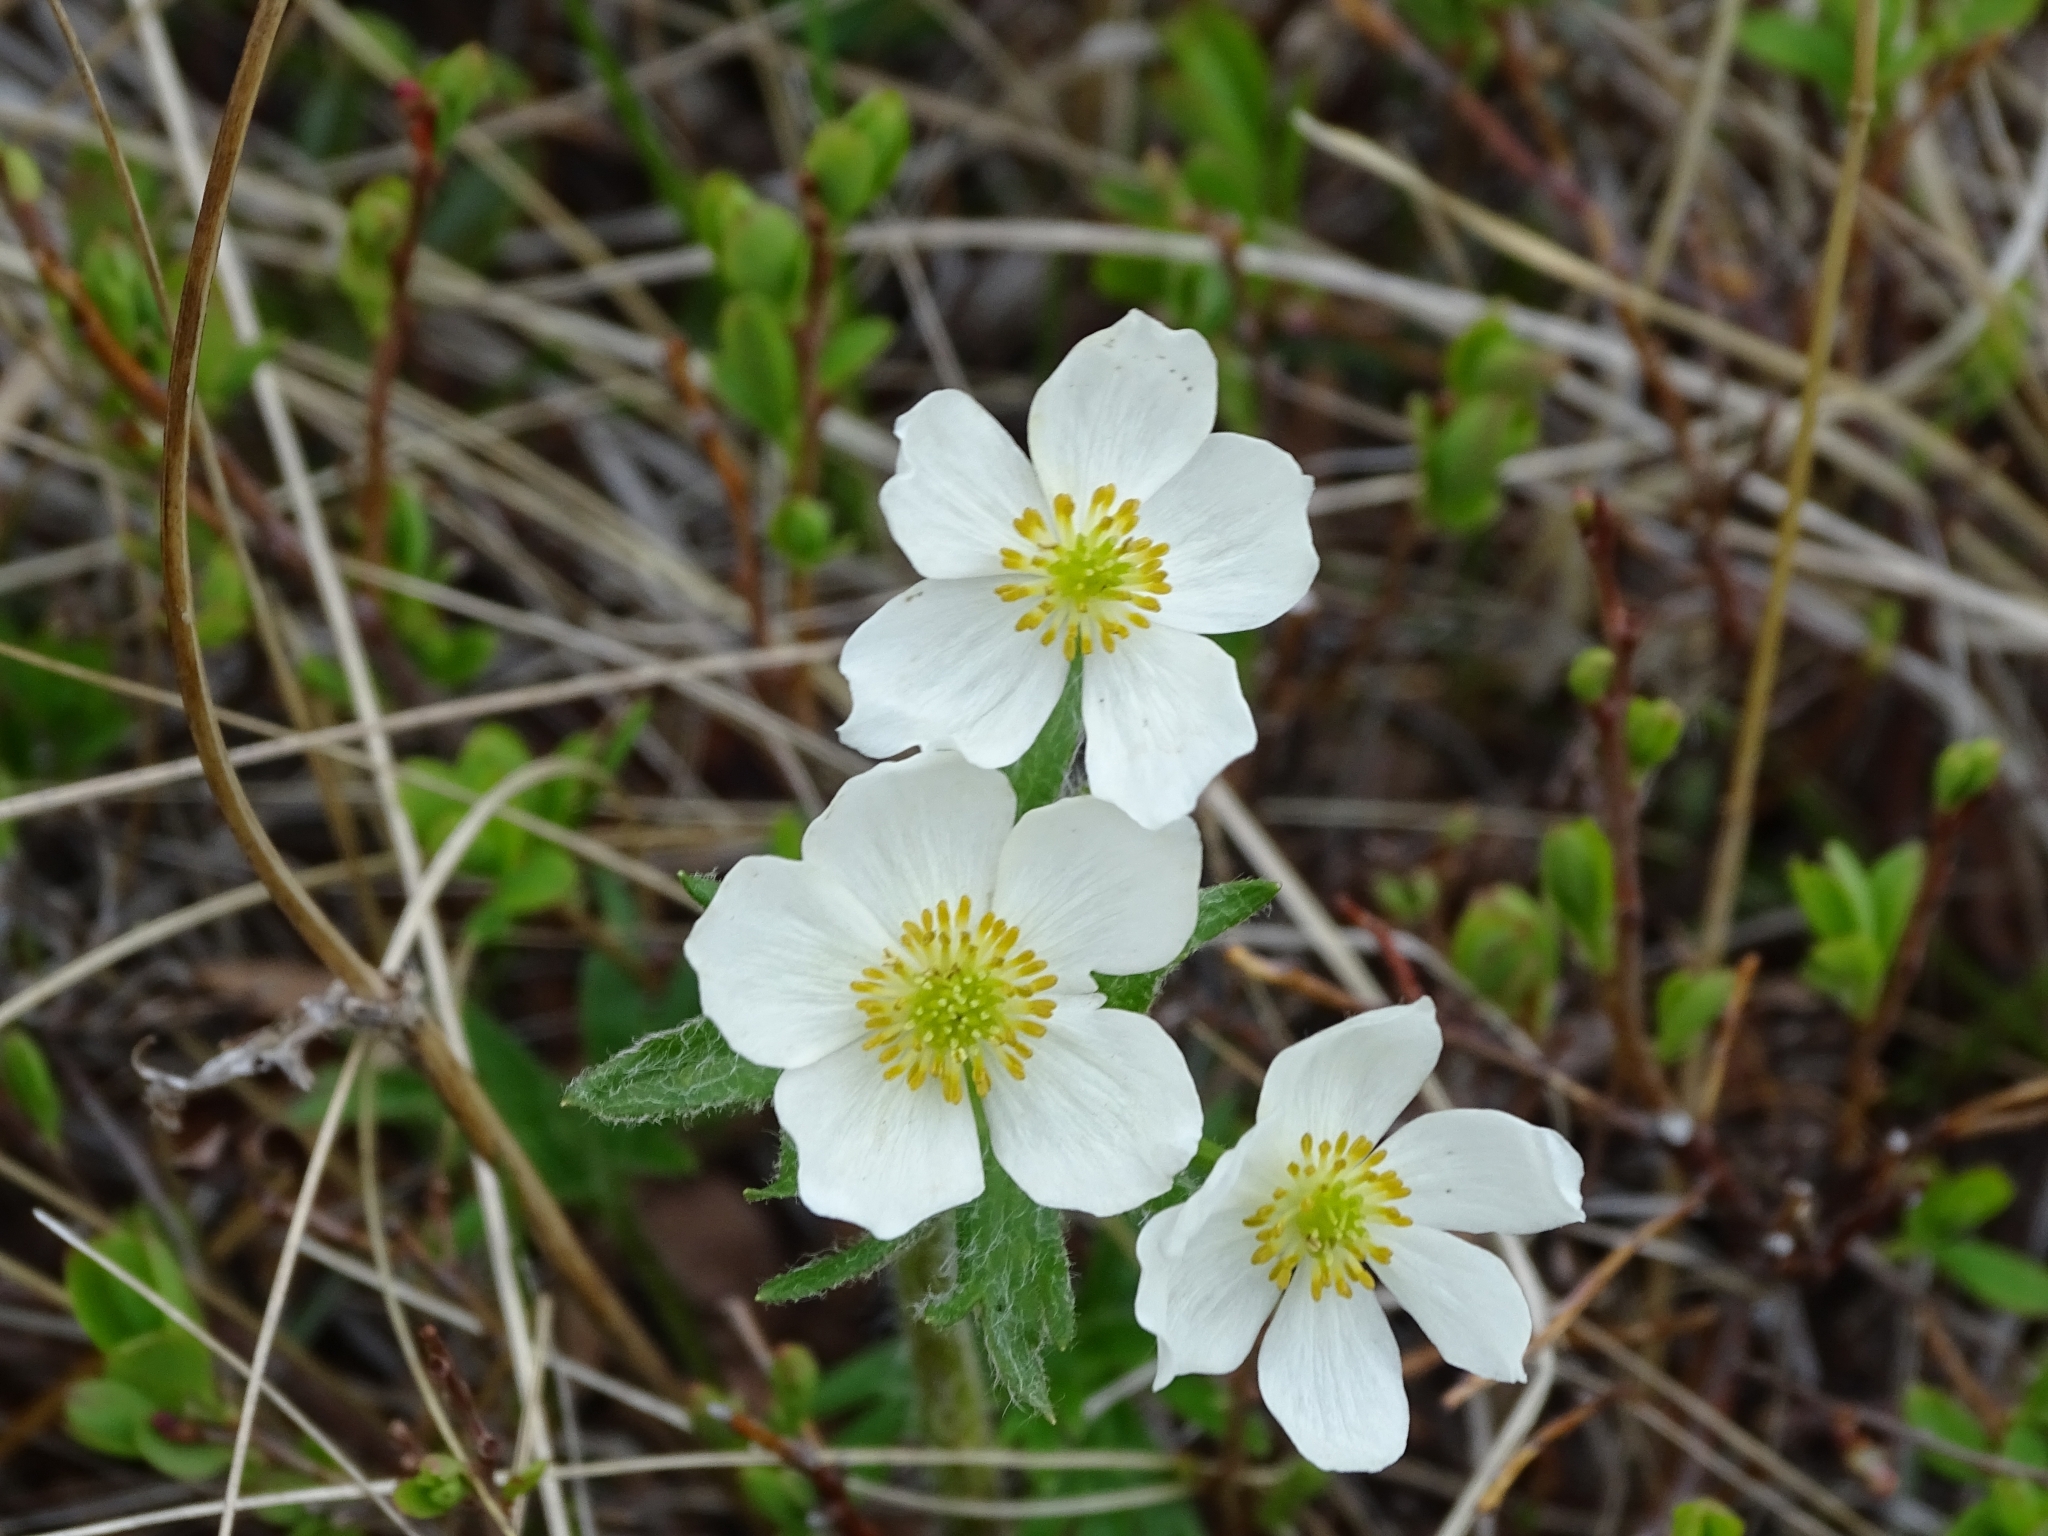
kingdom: Plantae
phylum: Tracheophyta
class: Magnoliopsida
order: Ranunculales
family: Ranunculaceae
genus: Anemonastrum
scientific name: Anemonastrum narcissiflorum
